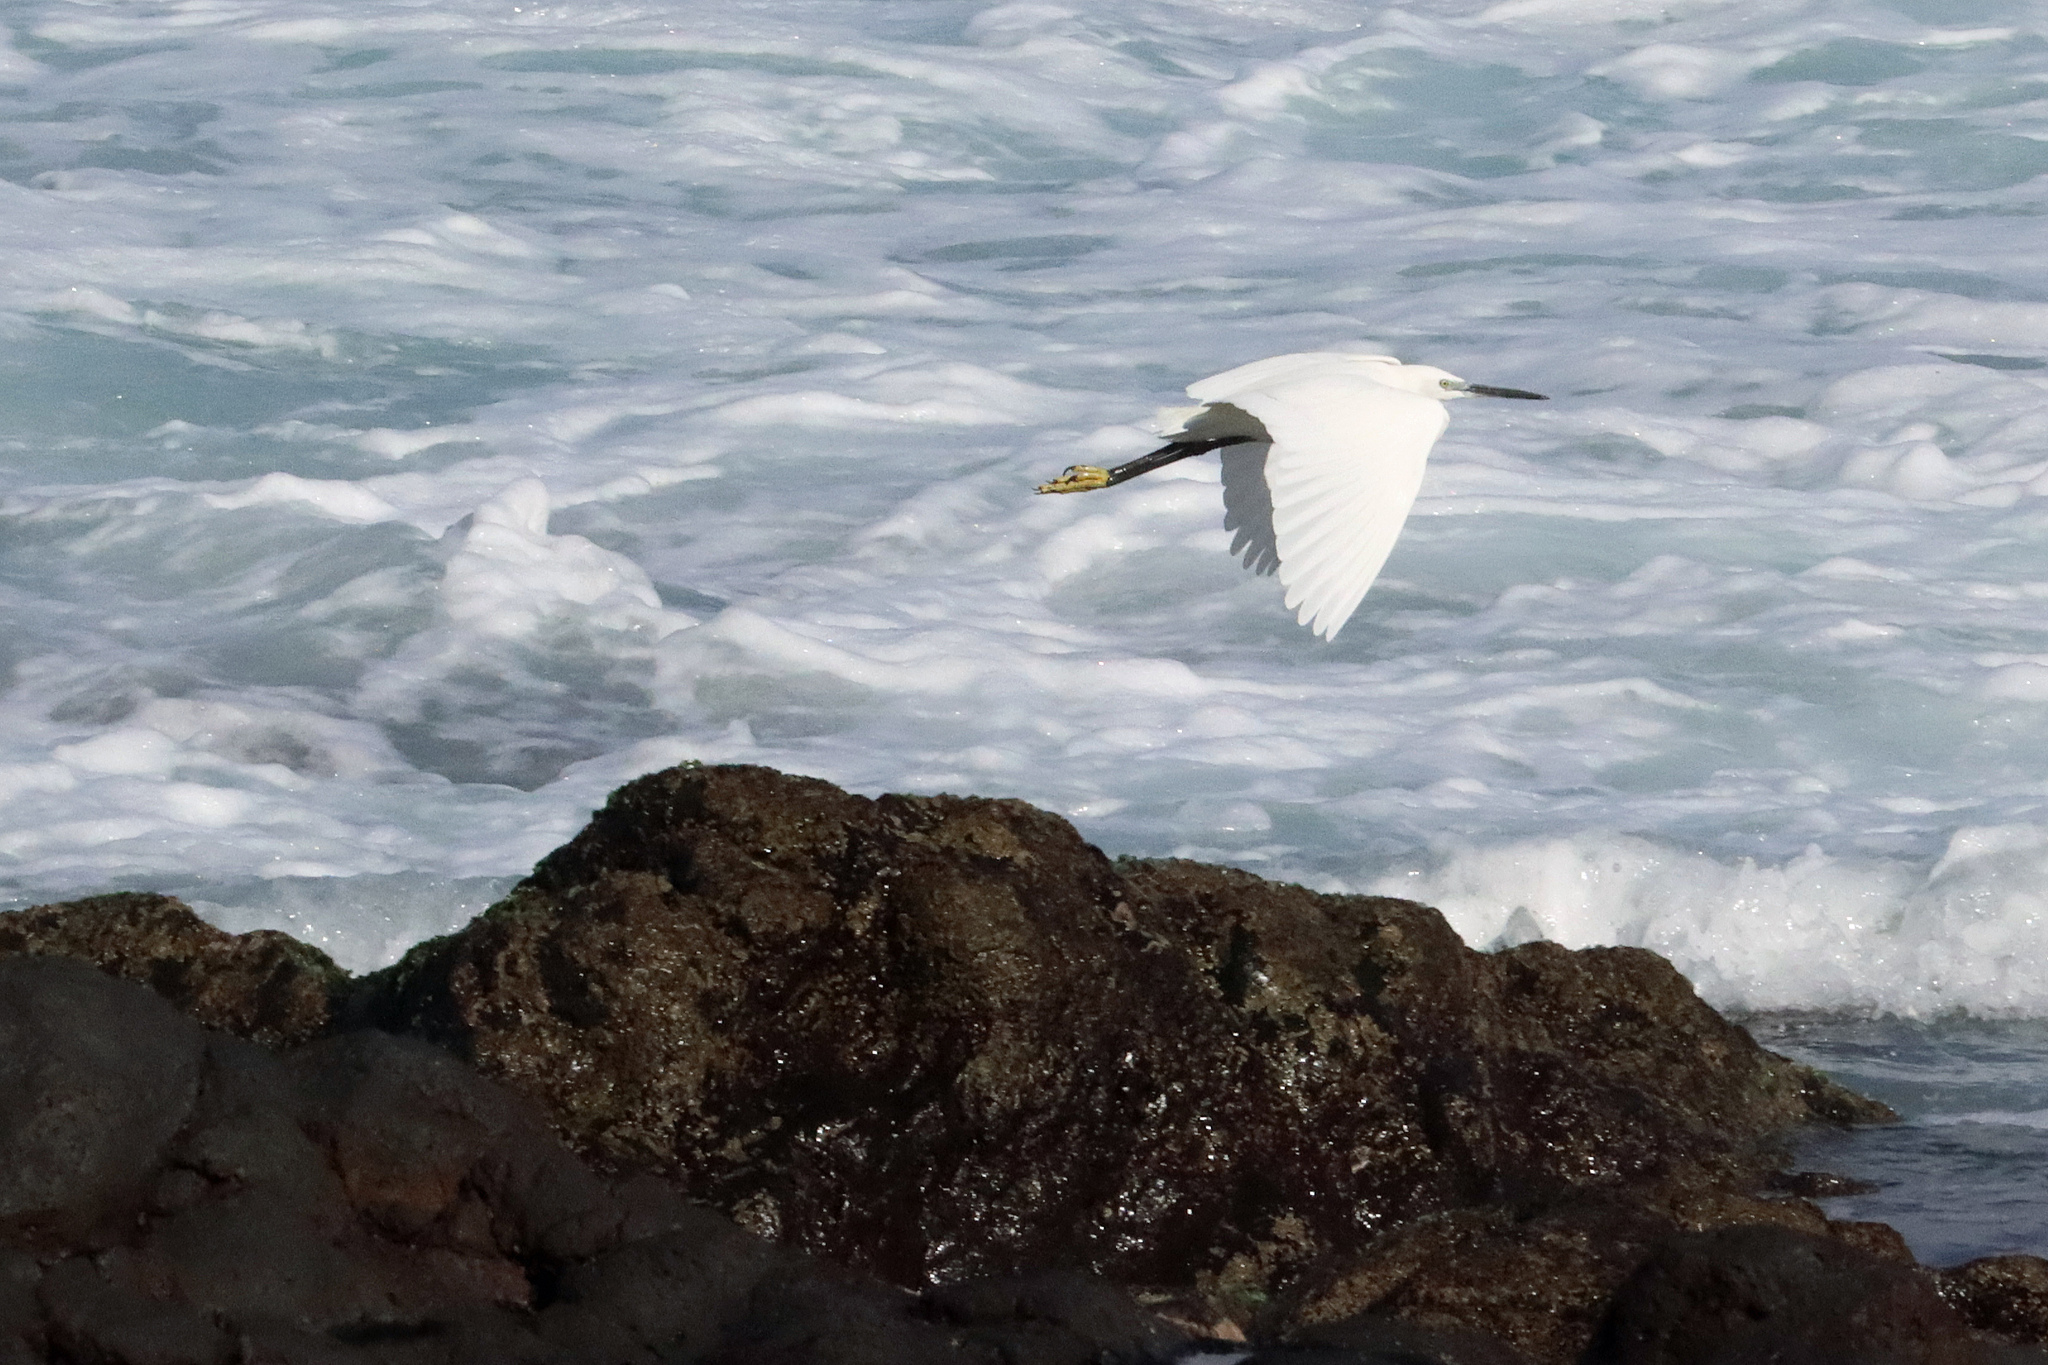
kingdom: Animalia
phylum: Chordata
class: Aves
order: Pelecaniformes
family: Ardeidae
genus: Egretta
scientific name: Egretta garzetta
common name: Little egret
